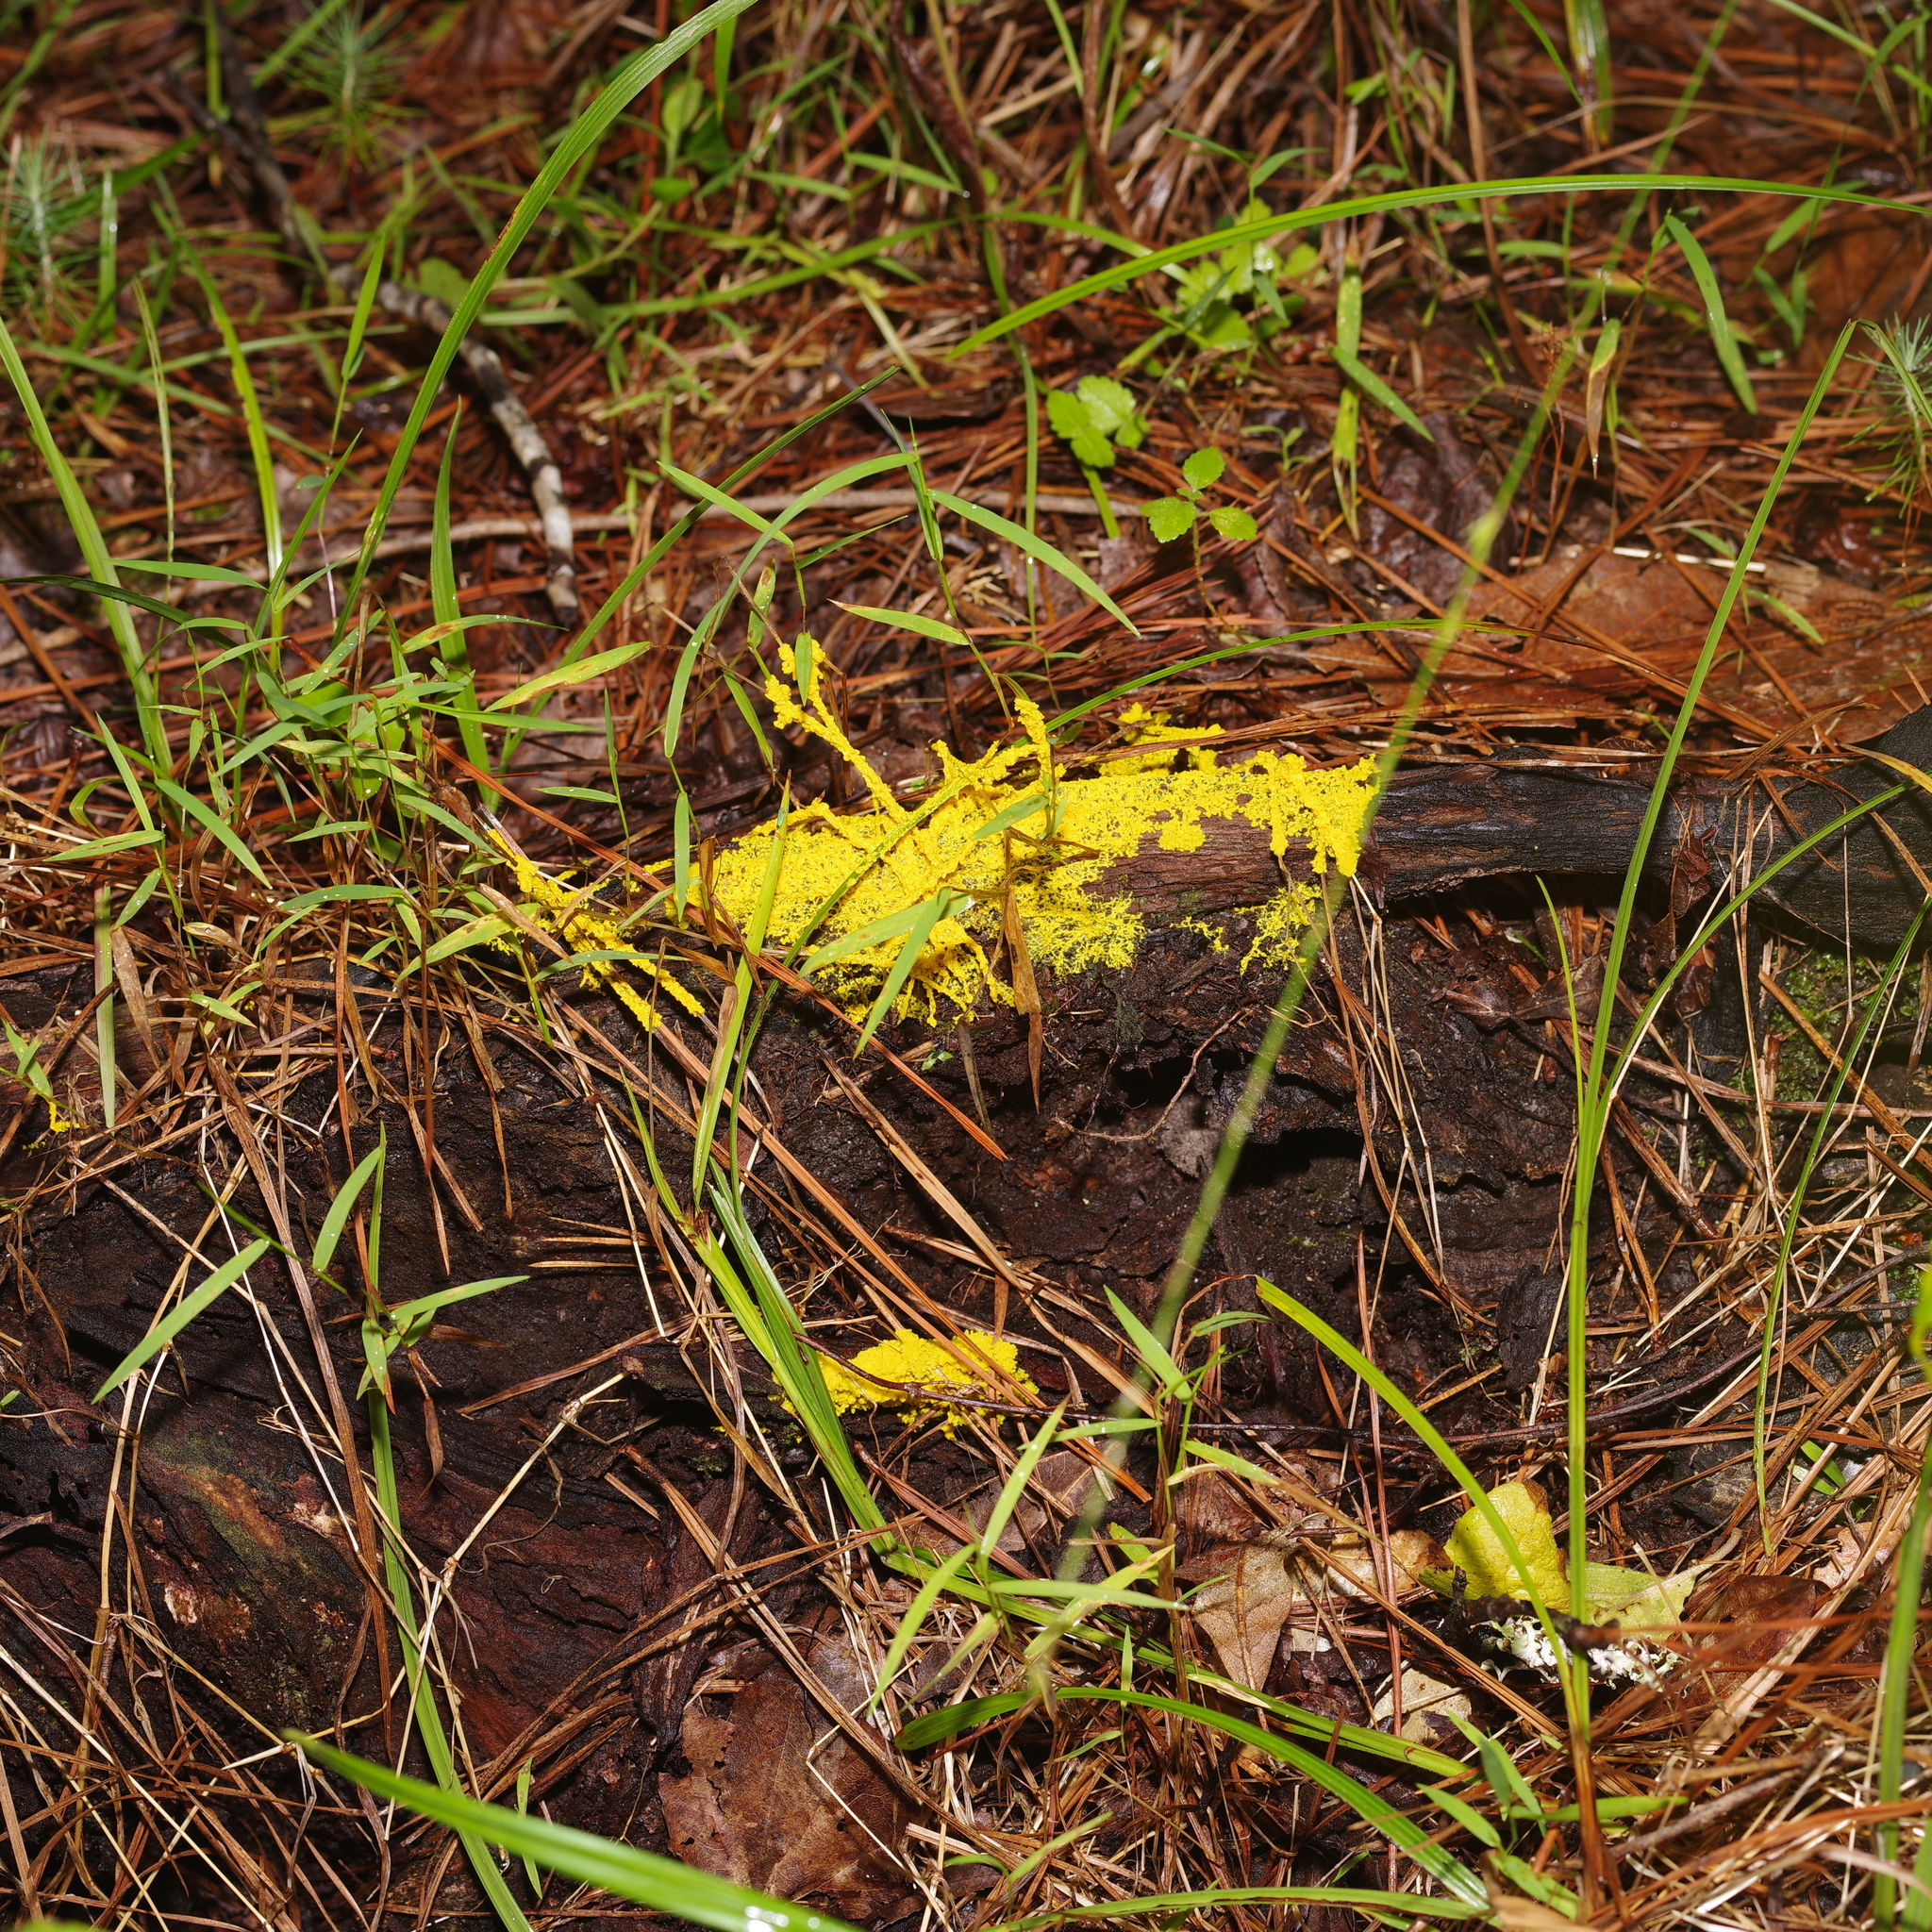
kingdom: Protozoa
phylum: Mycetozoa
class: Myxomycetes
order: Physarales
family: Physaraceae
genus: Fuligo
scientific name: Fuligo septica
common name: Dog vomit slime mold
